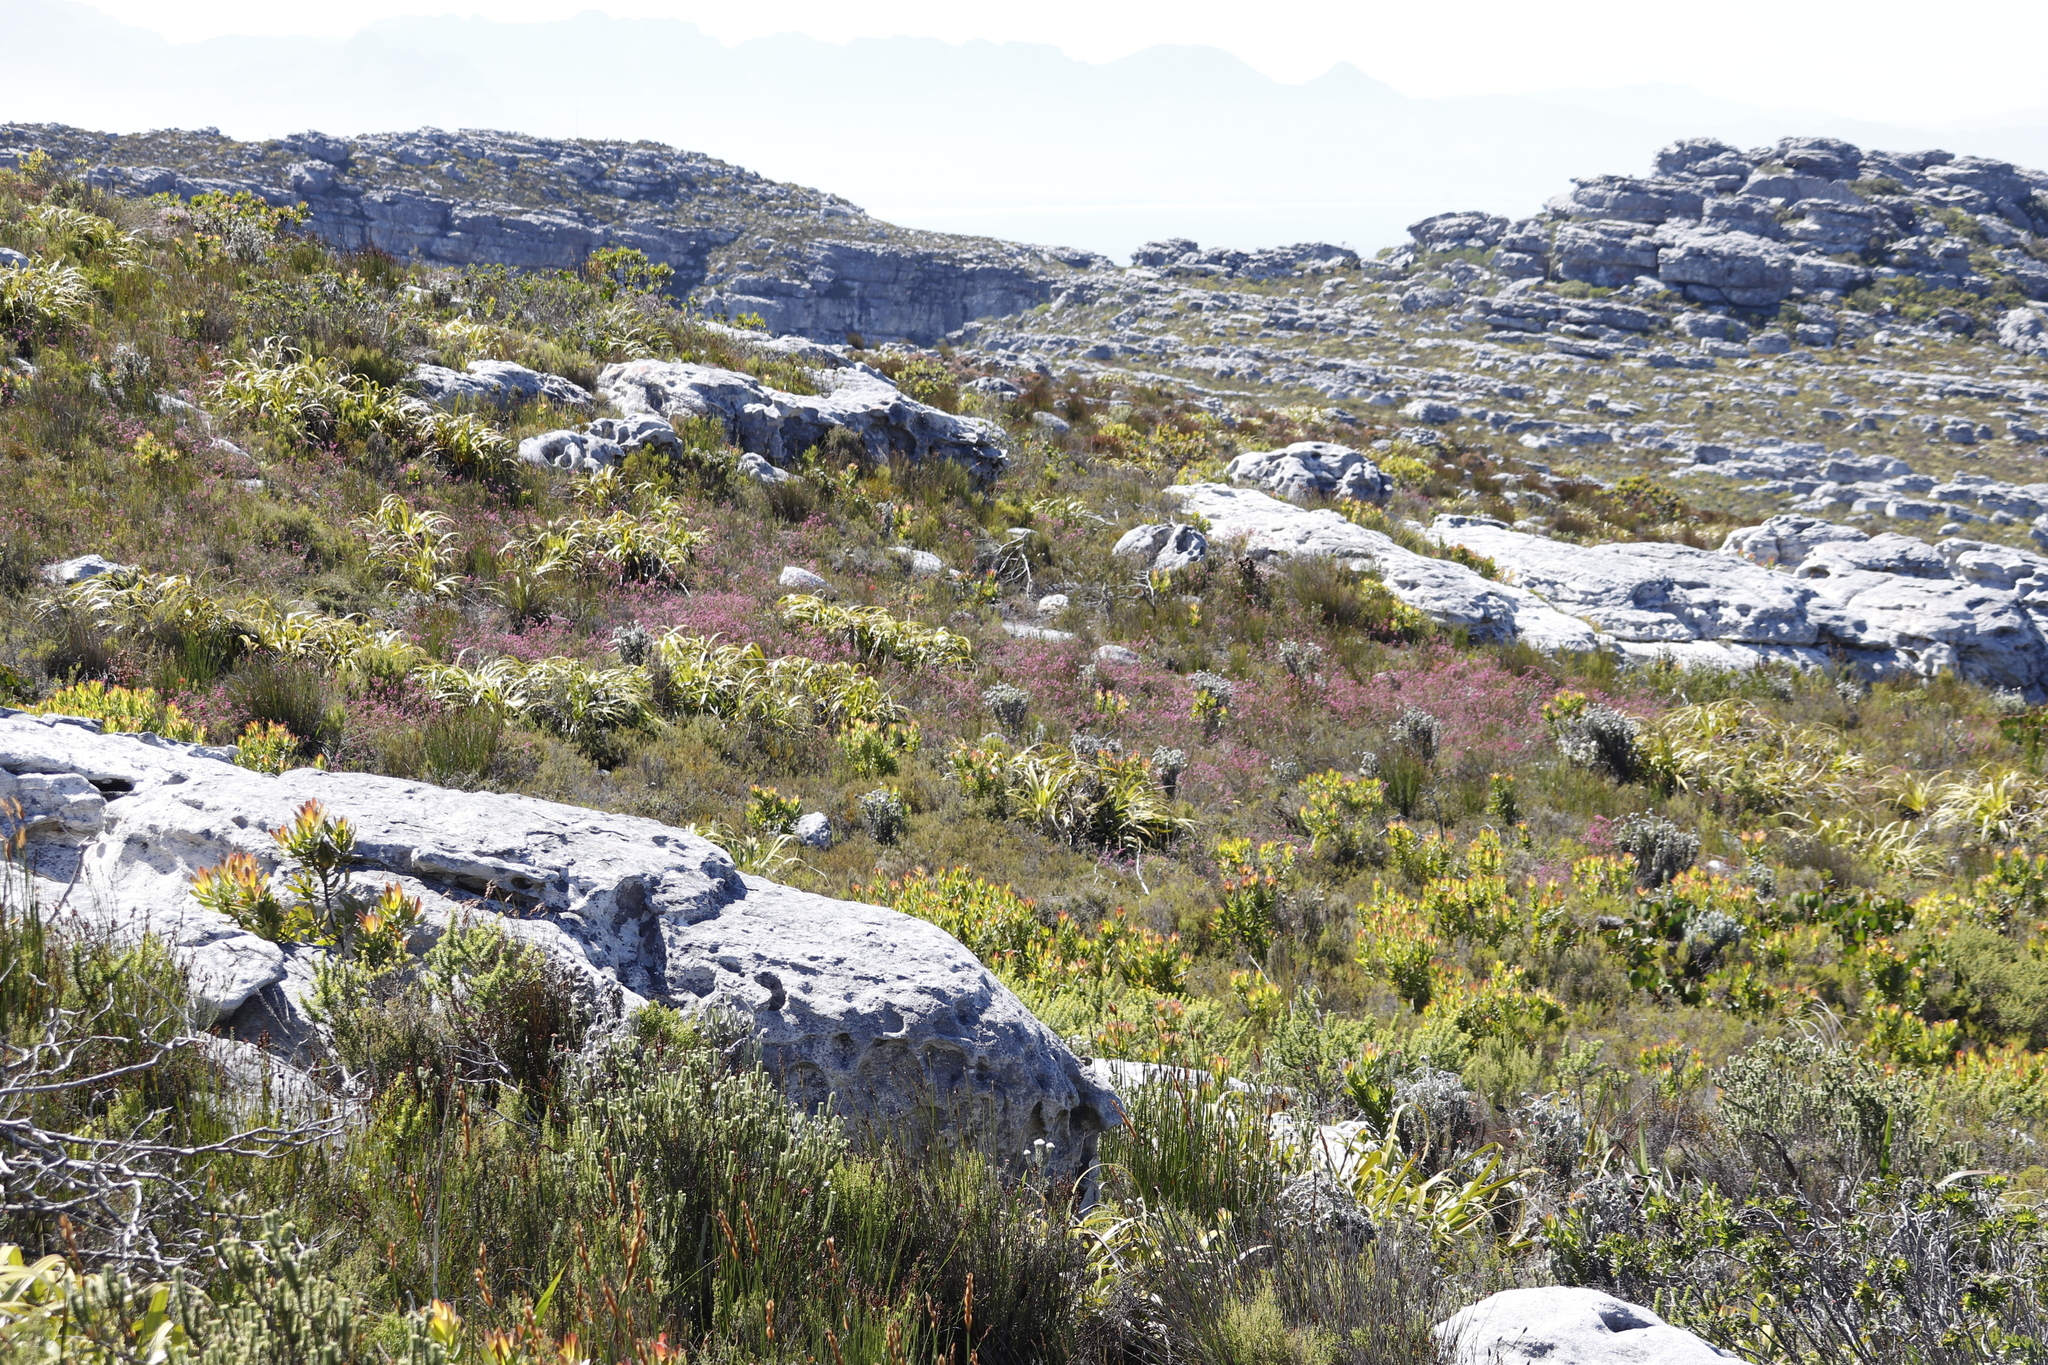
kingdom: Plantae
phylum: Tracheophyta
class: Liliopsida
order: Poales
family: Cyperaceae
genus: Tetraria
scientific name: Tetraria thermalis
